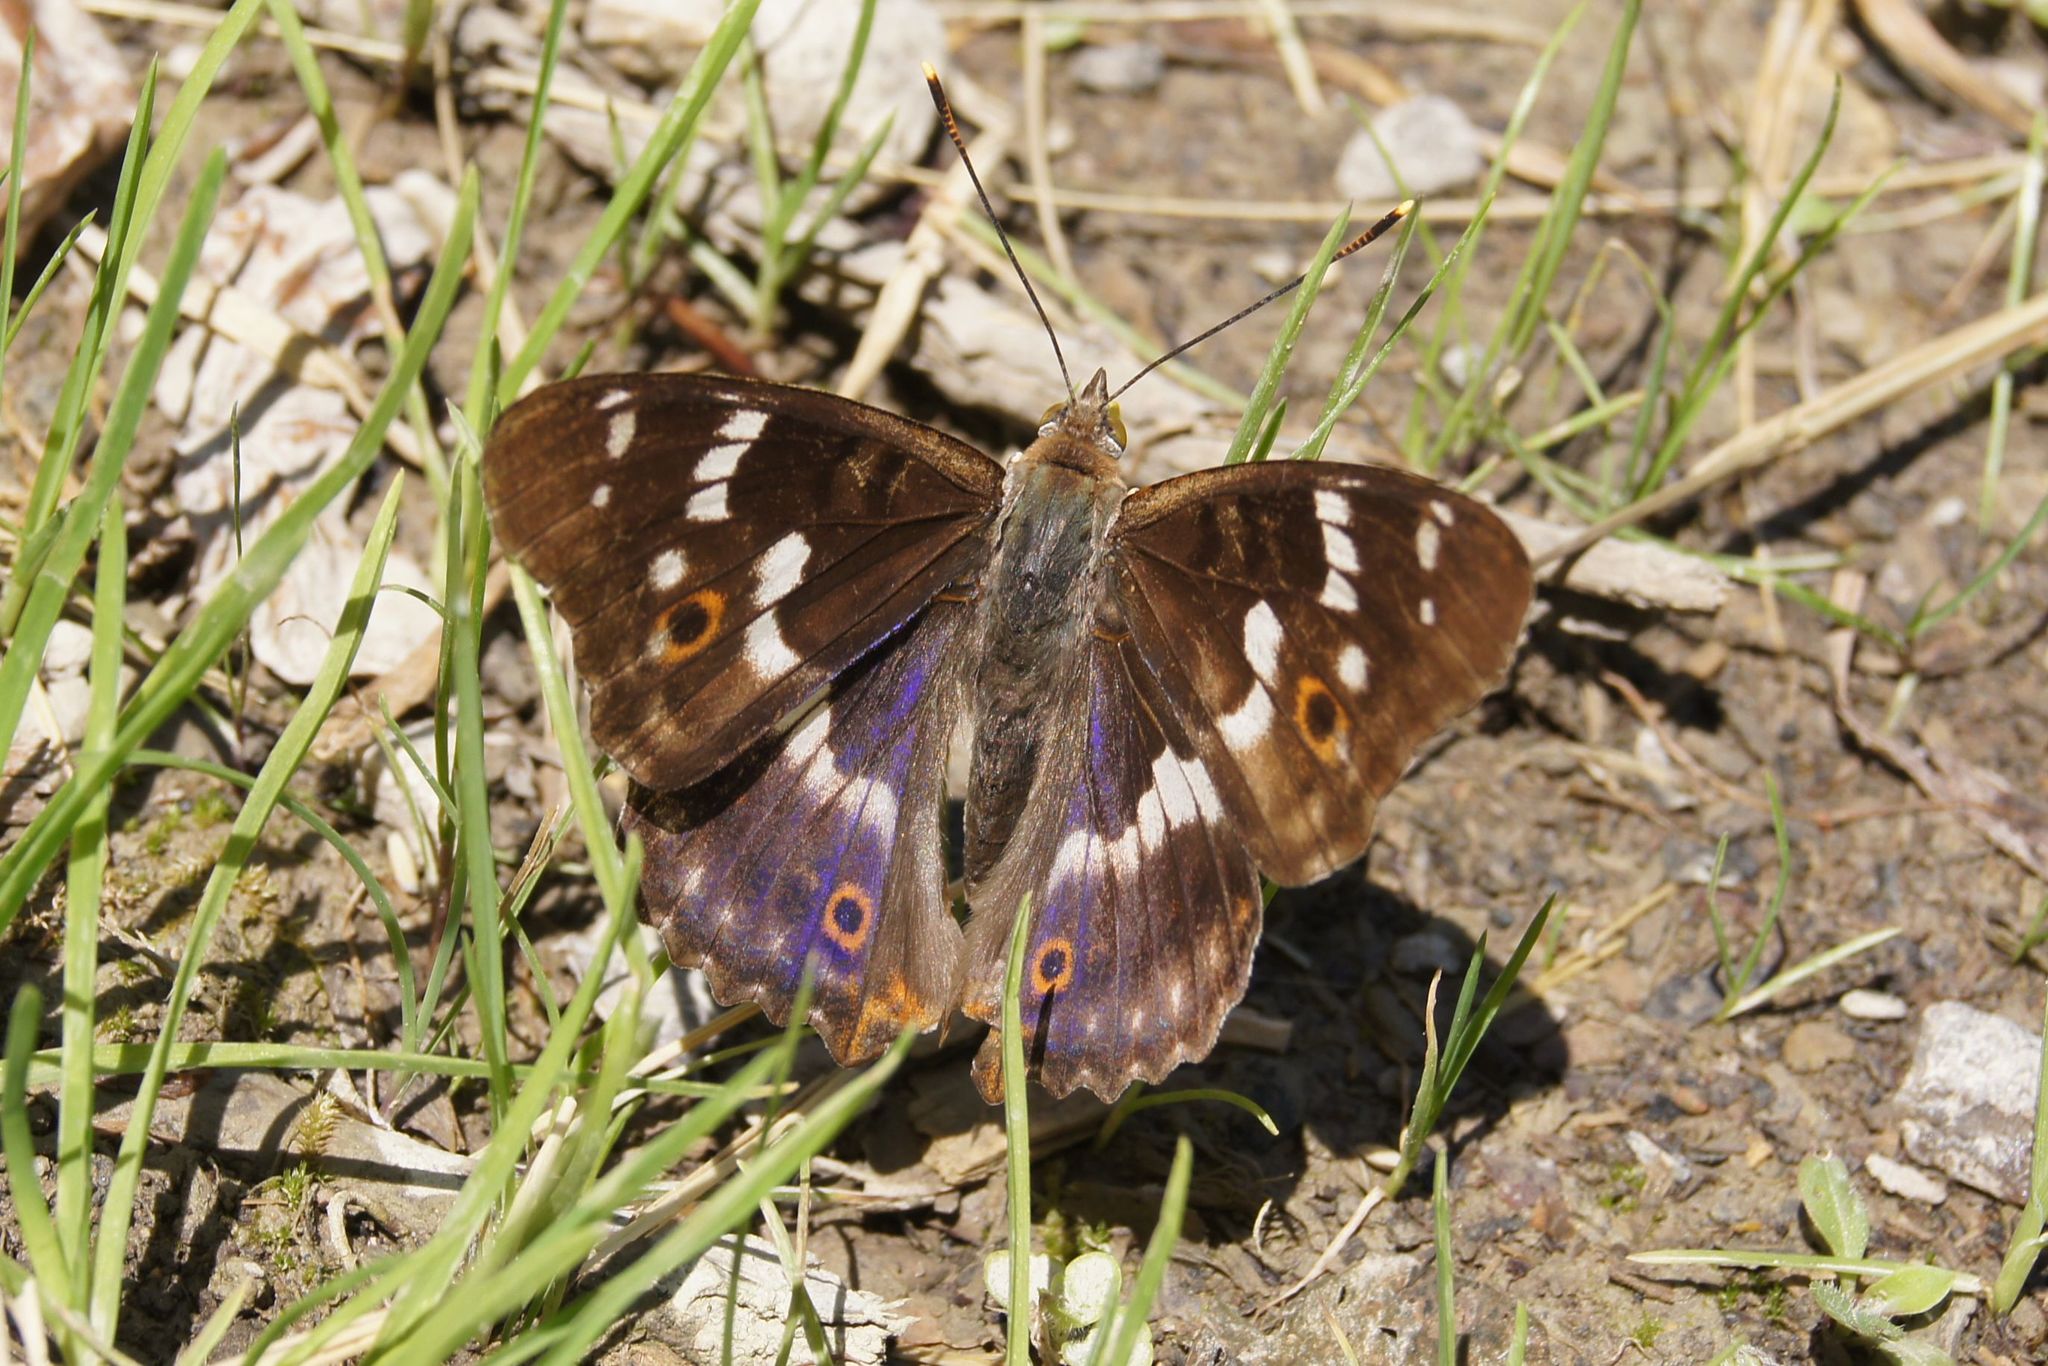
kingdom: Animalia
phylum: Arthropoda
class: Insecta
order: Lepidoptera
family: Nymphalidae
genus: Apatura
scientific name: Apatura ilia
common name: Lesser purple emperor
